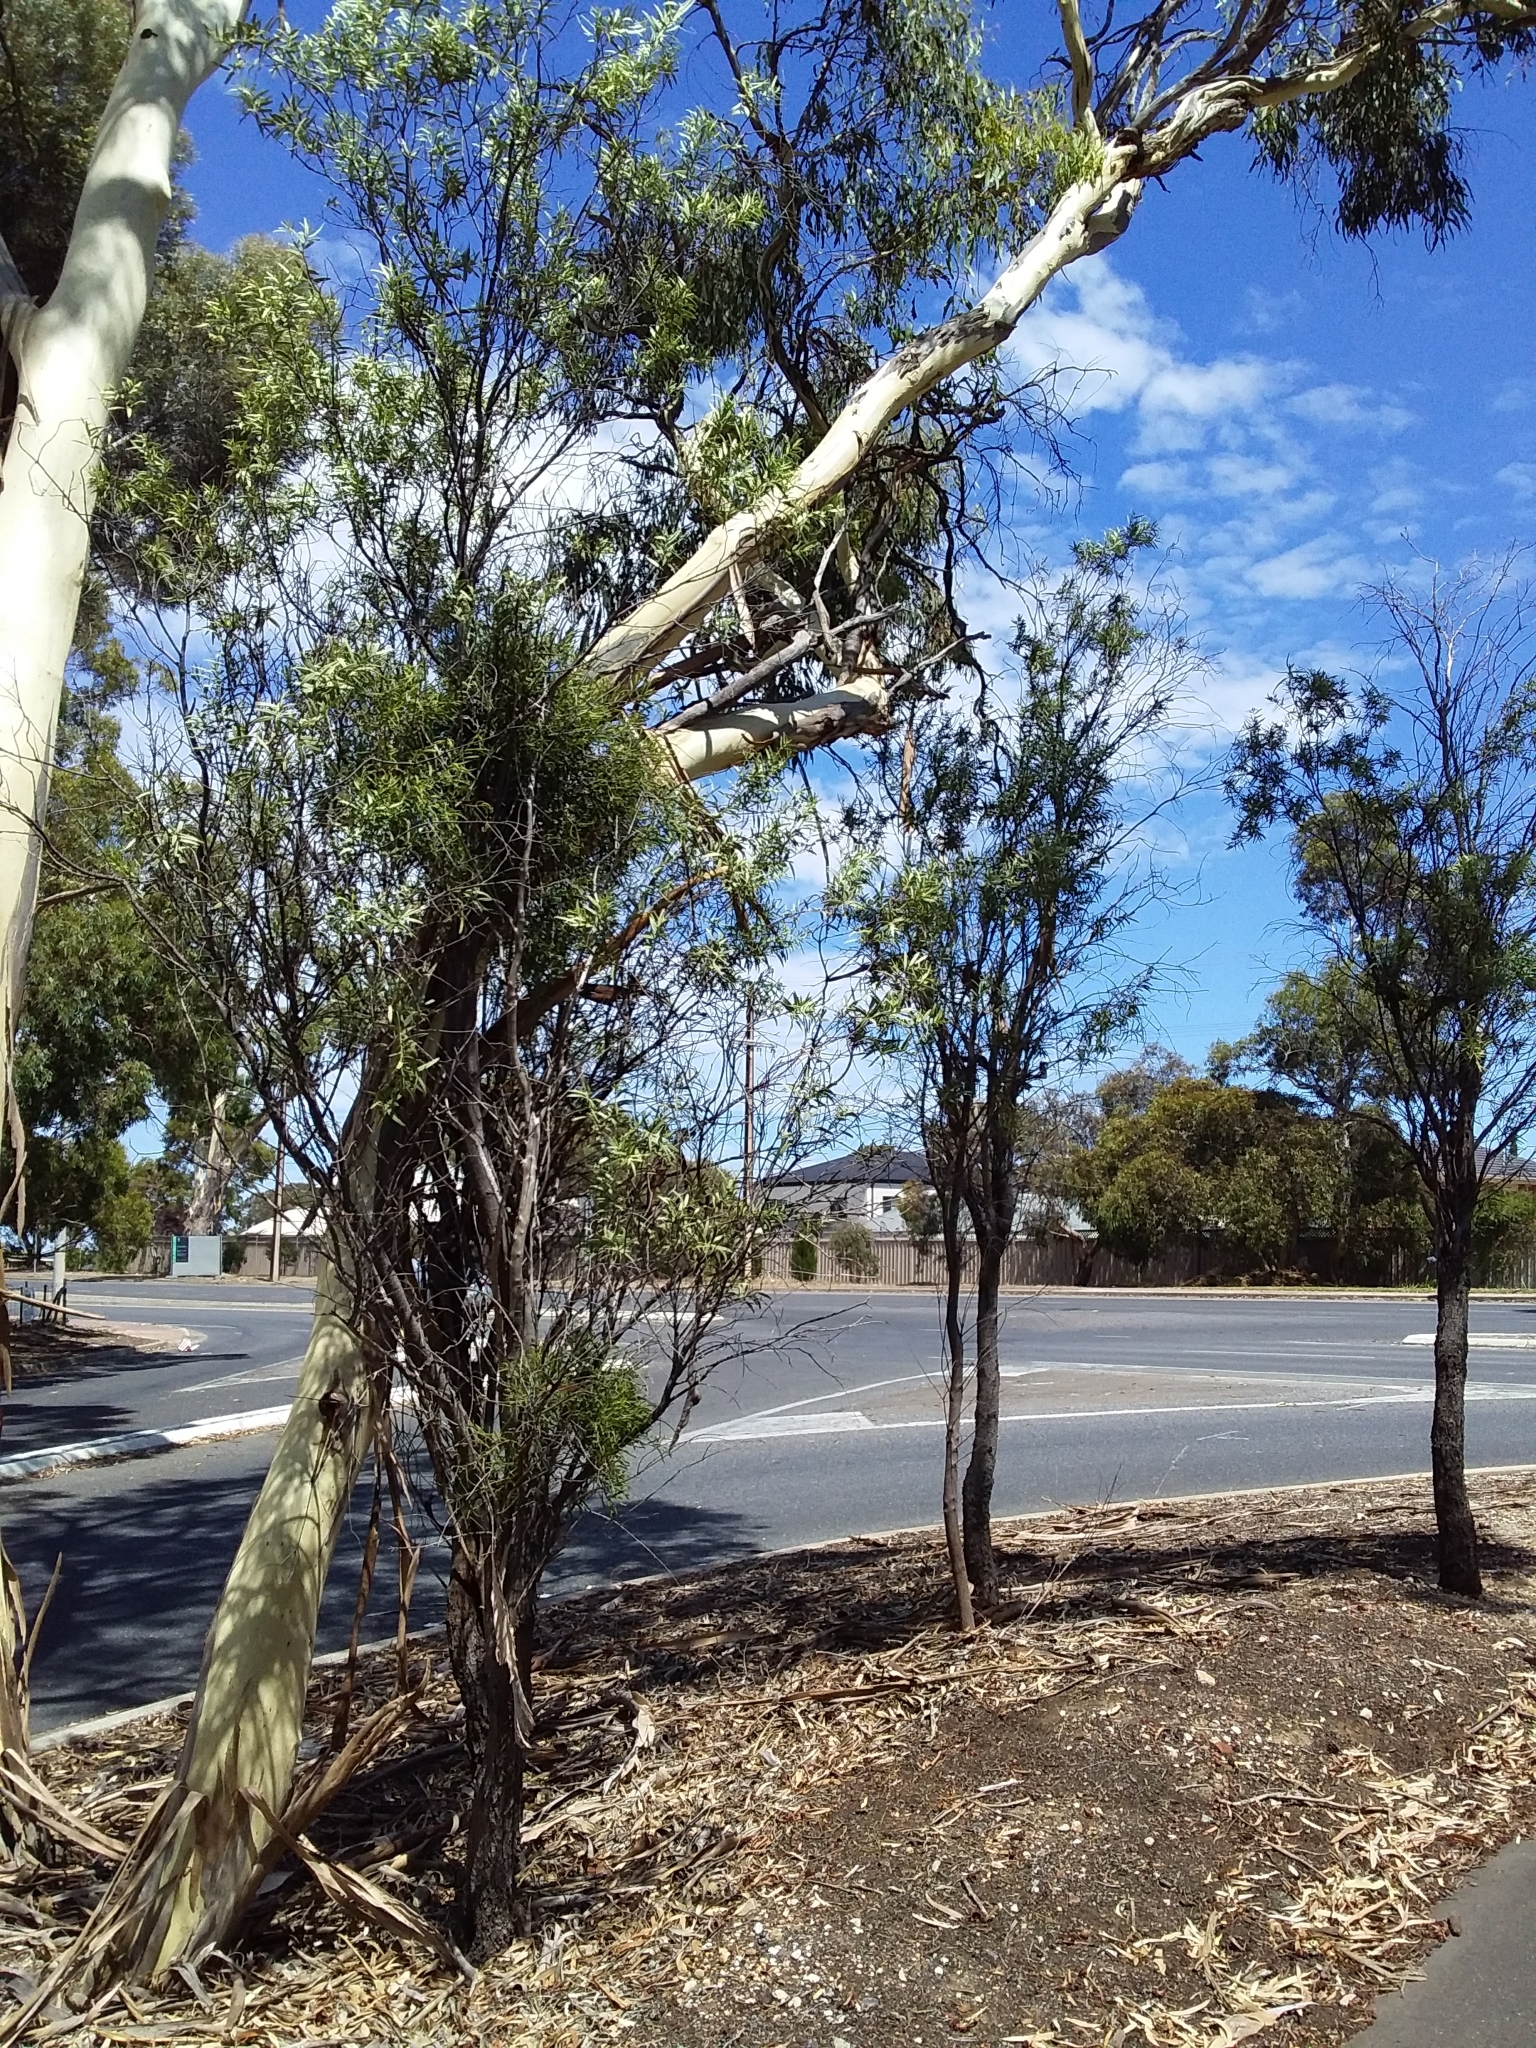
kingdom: Plantae
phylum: Tracheophyta
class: Magnoliopsida
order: Santalales
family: Santalaceae
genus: Santalum
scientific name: Santalum acuminatum
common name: Sweet quandong
